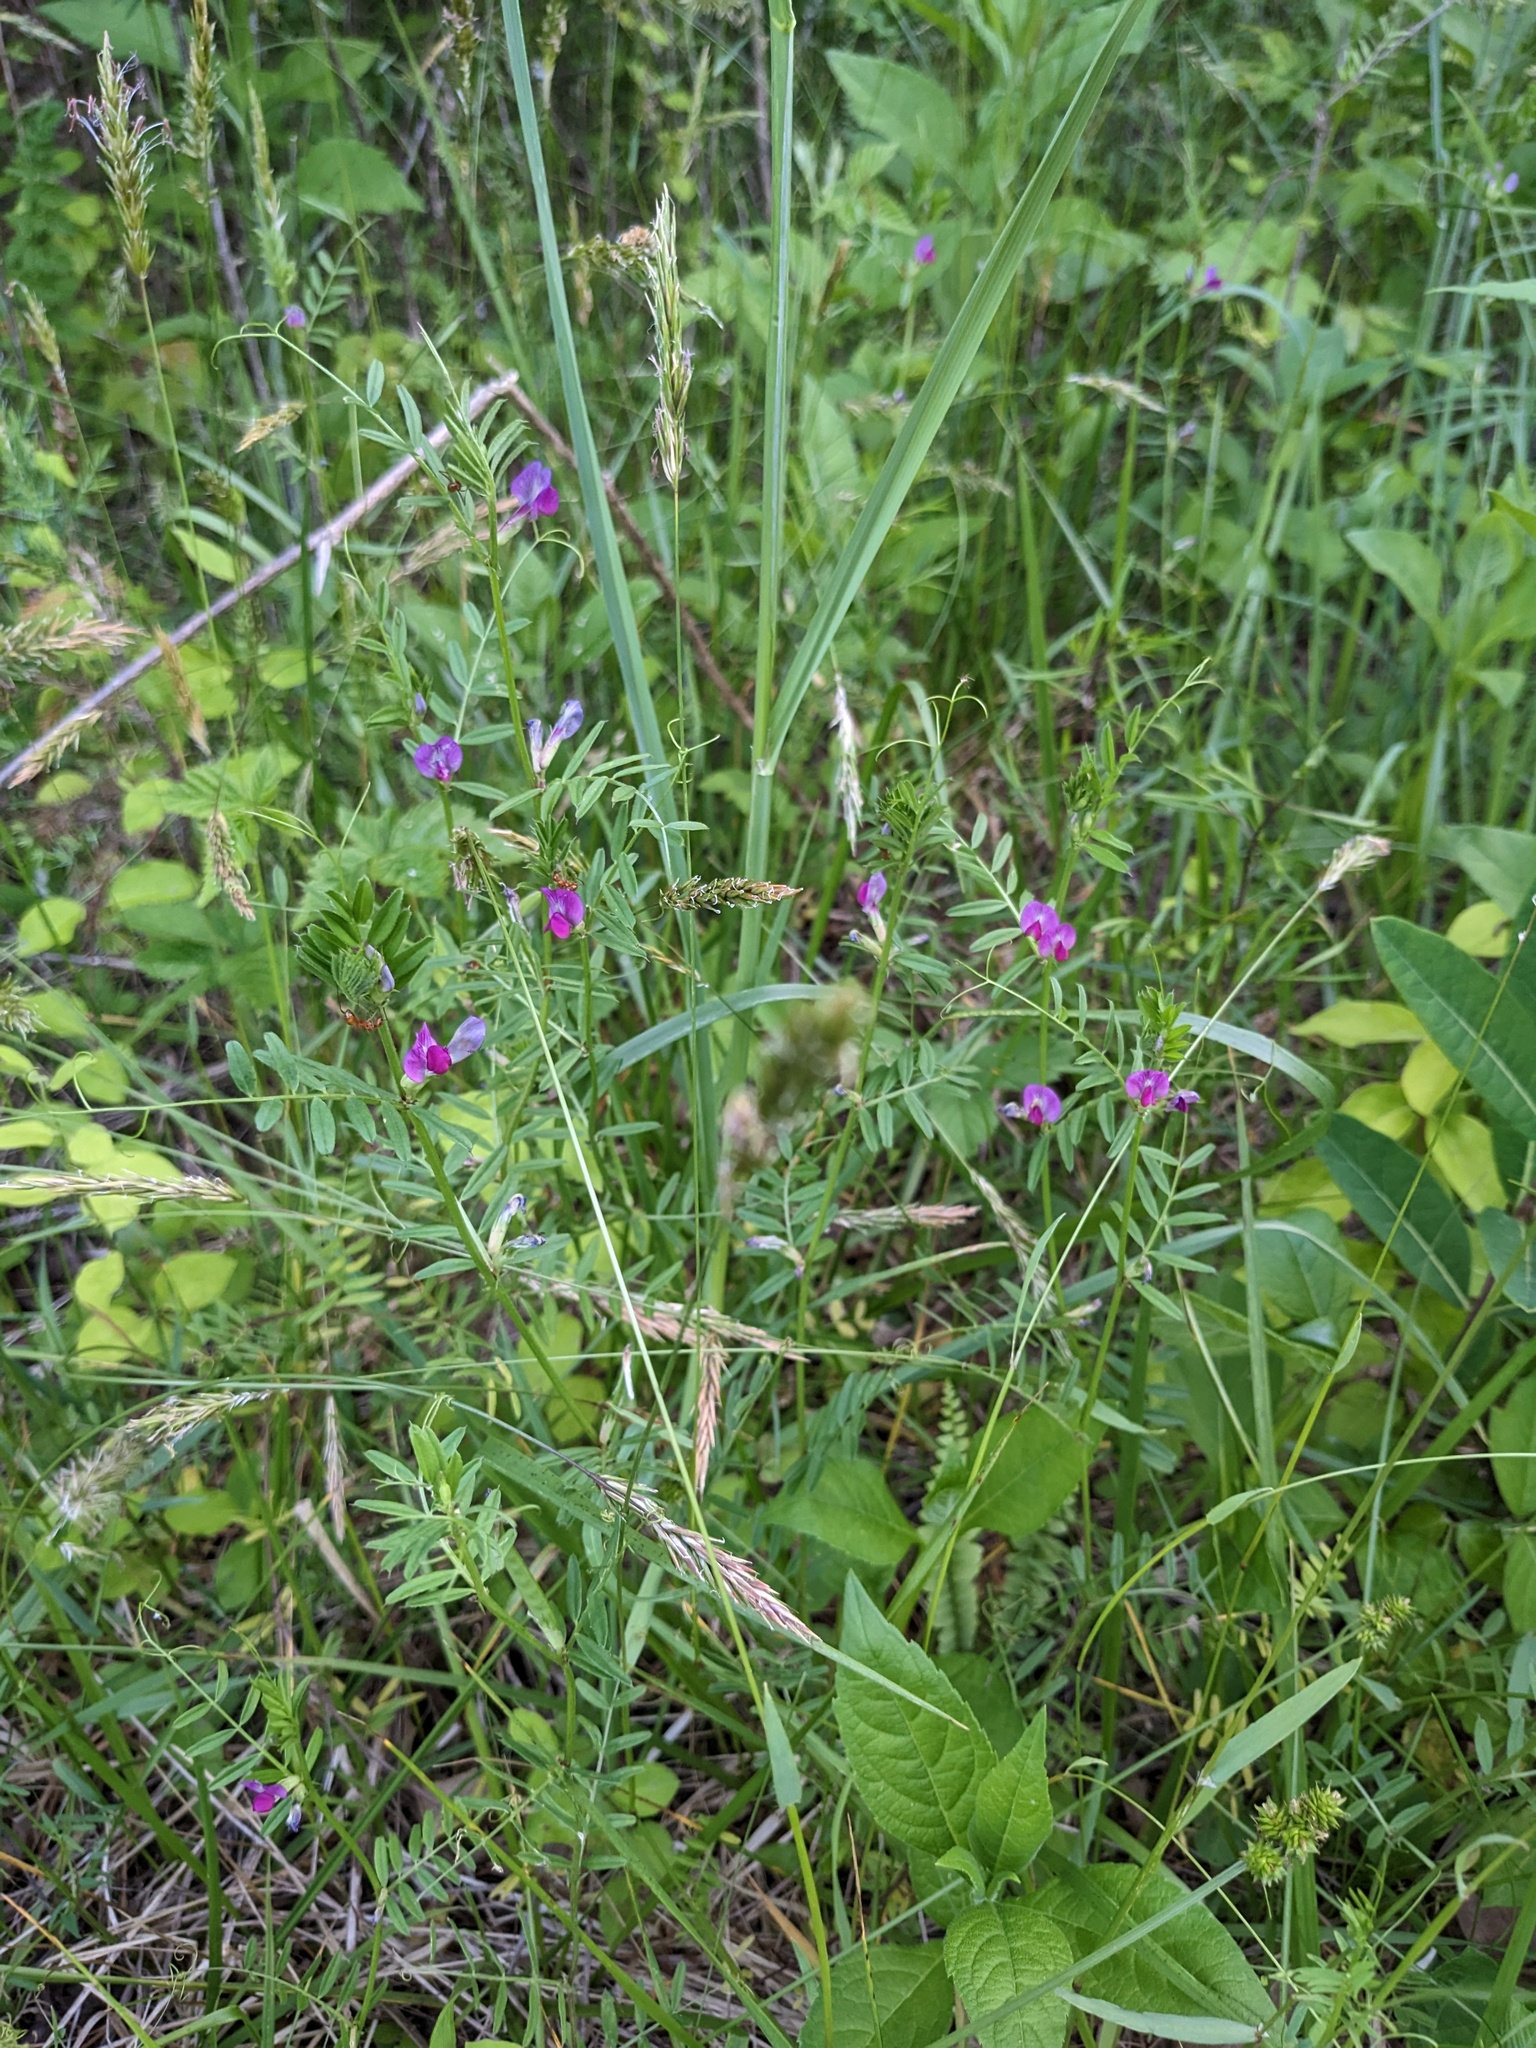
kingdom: Plantae
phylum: Tracheophyta
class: Magnoliopsida
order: Fabales
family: Fabaceae
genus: Vicia
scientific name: Vicia sativa
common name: Garden vetch
